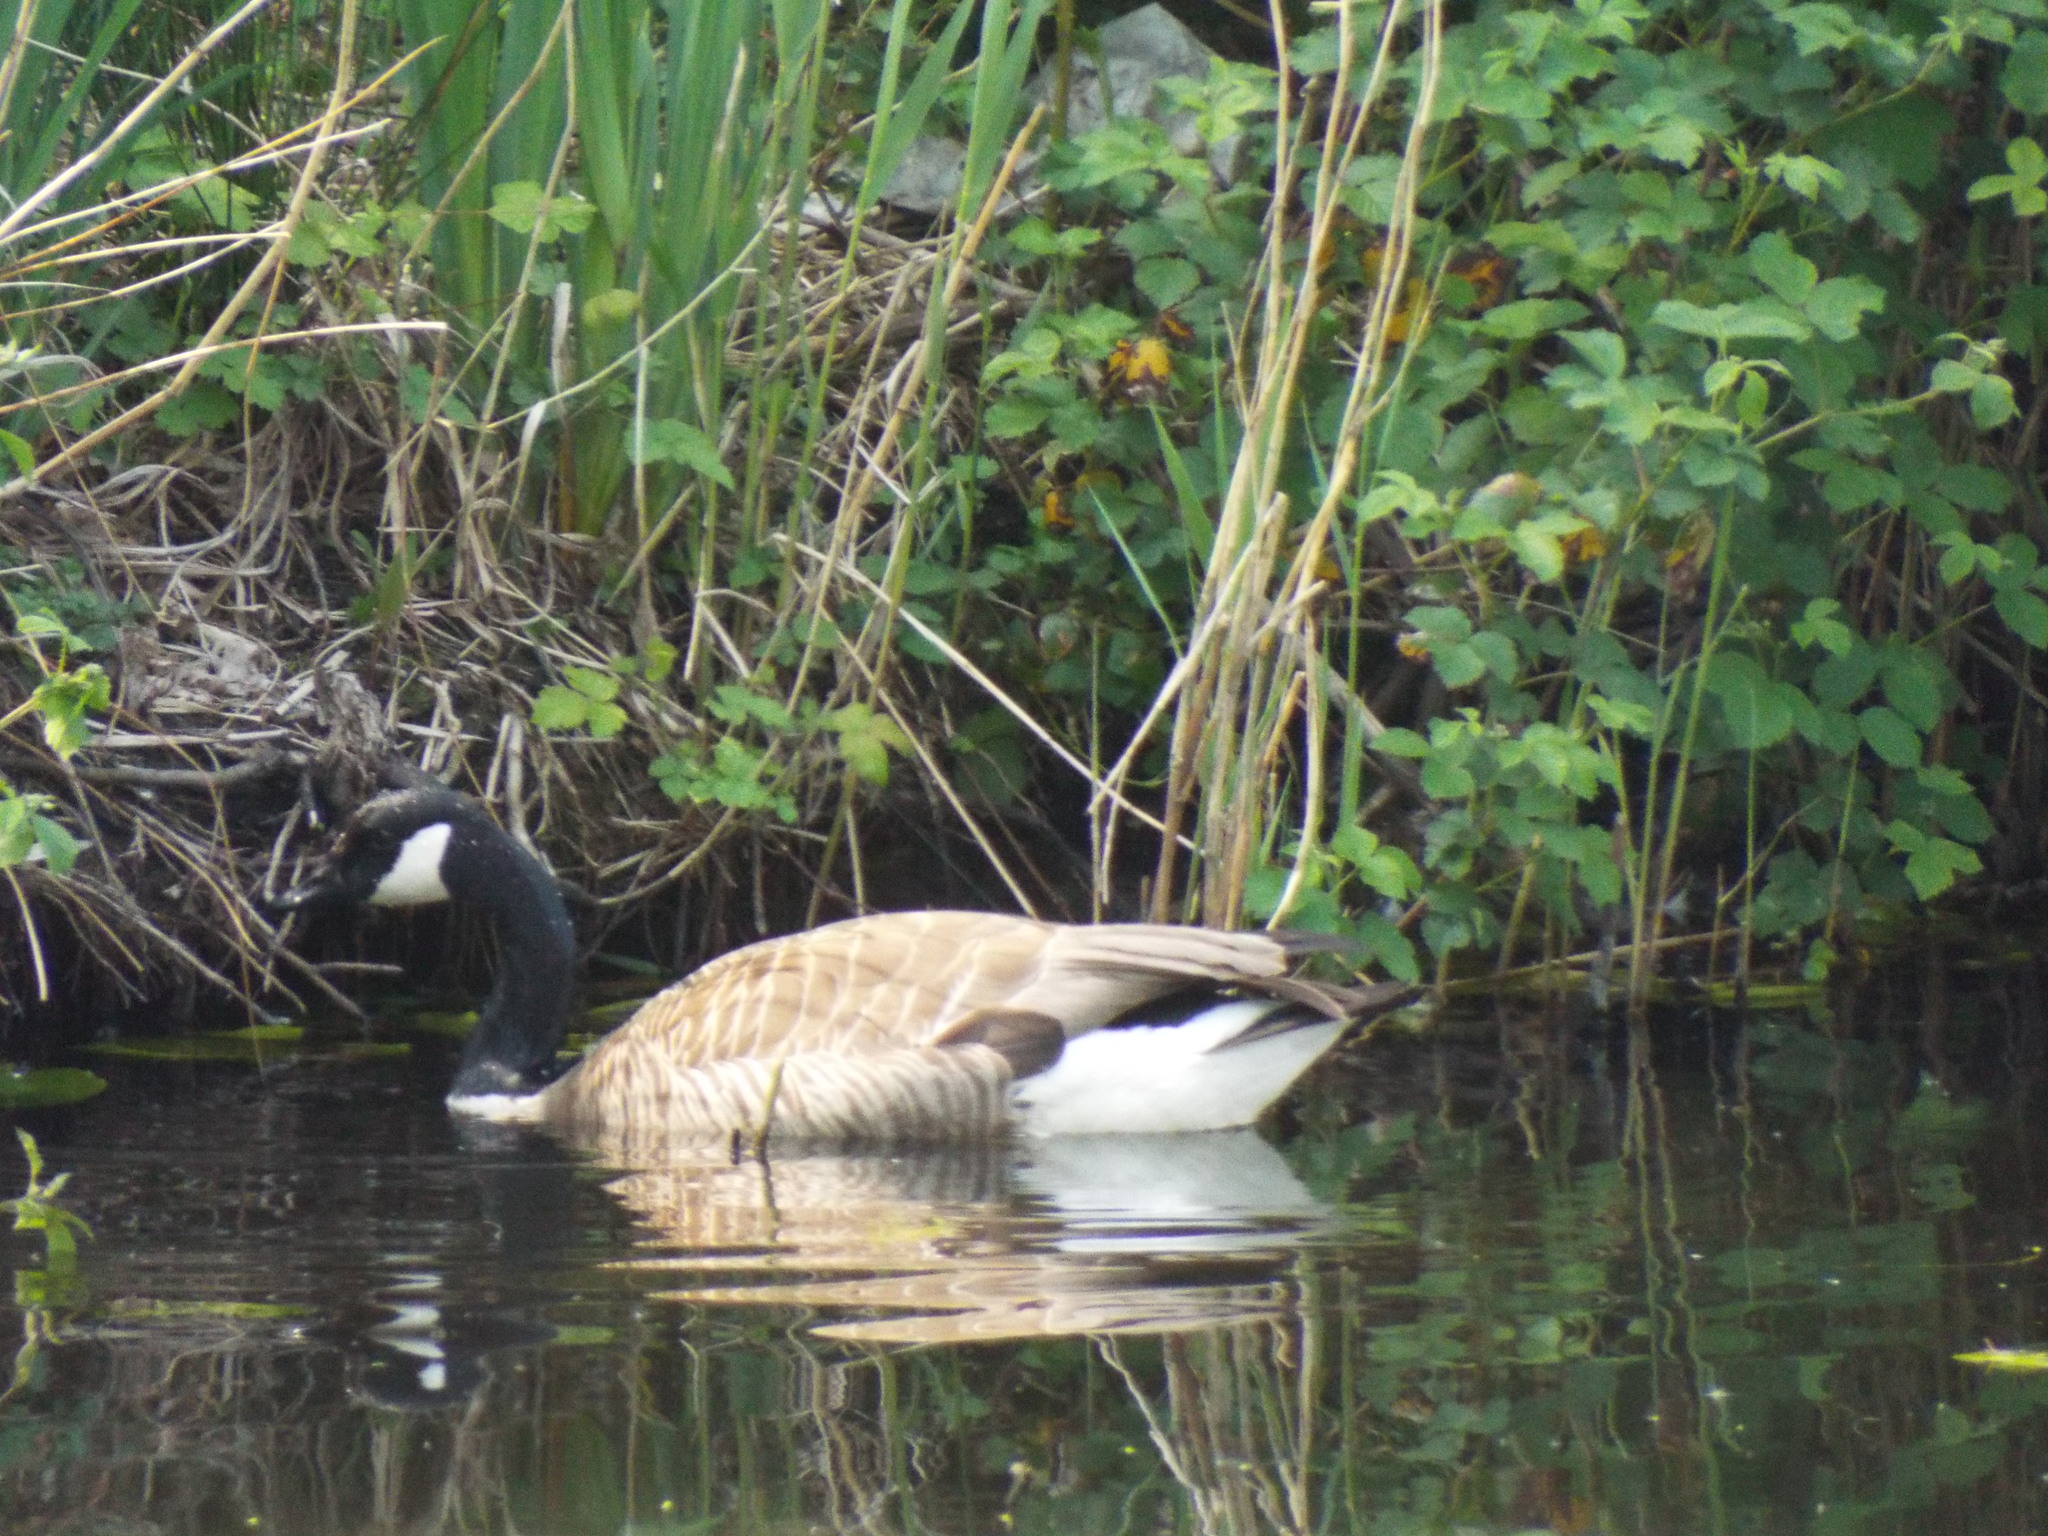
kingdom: Animalia
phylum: Chordata
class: Aves
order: Anseriformes
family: Anatidae
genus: Branta
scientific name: Branta canadensis
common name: Canada goose
